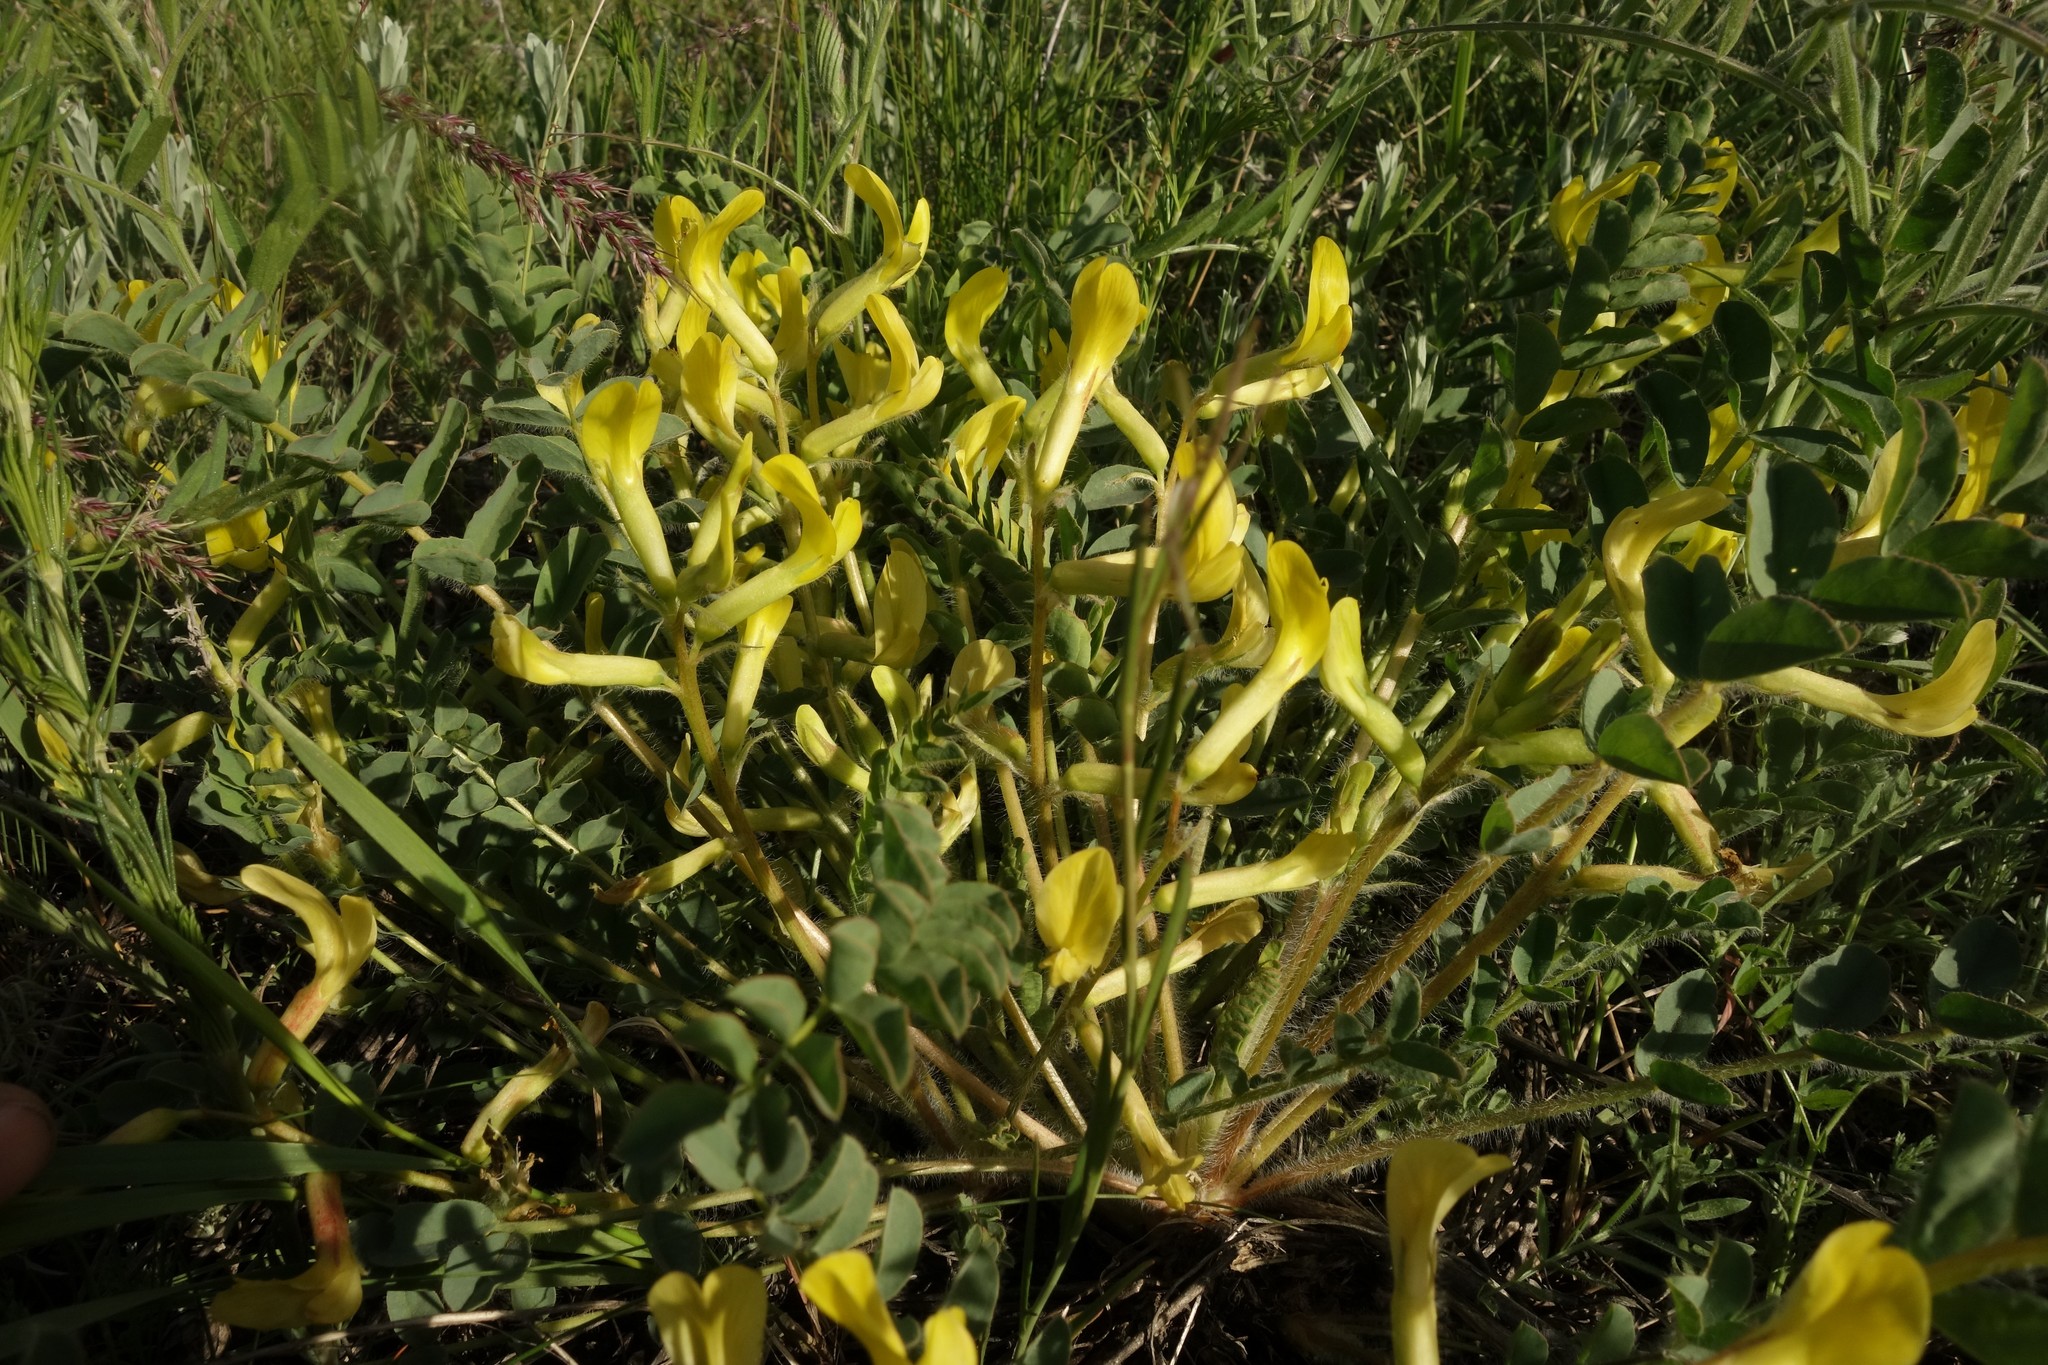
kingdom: Plantae
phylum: Tracheophyta
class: Magnoliopsida
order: Fabales
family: Fabaceae
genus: Astragalus
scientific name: Astragalus longipetalus
